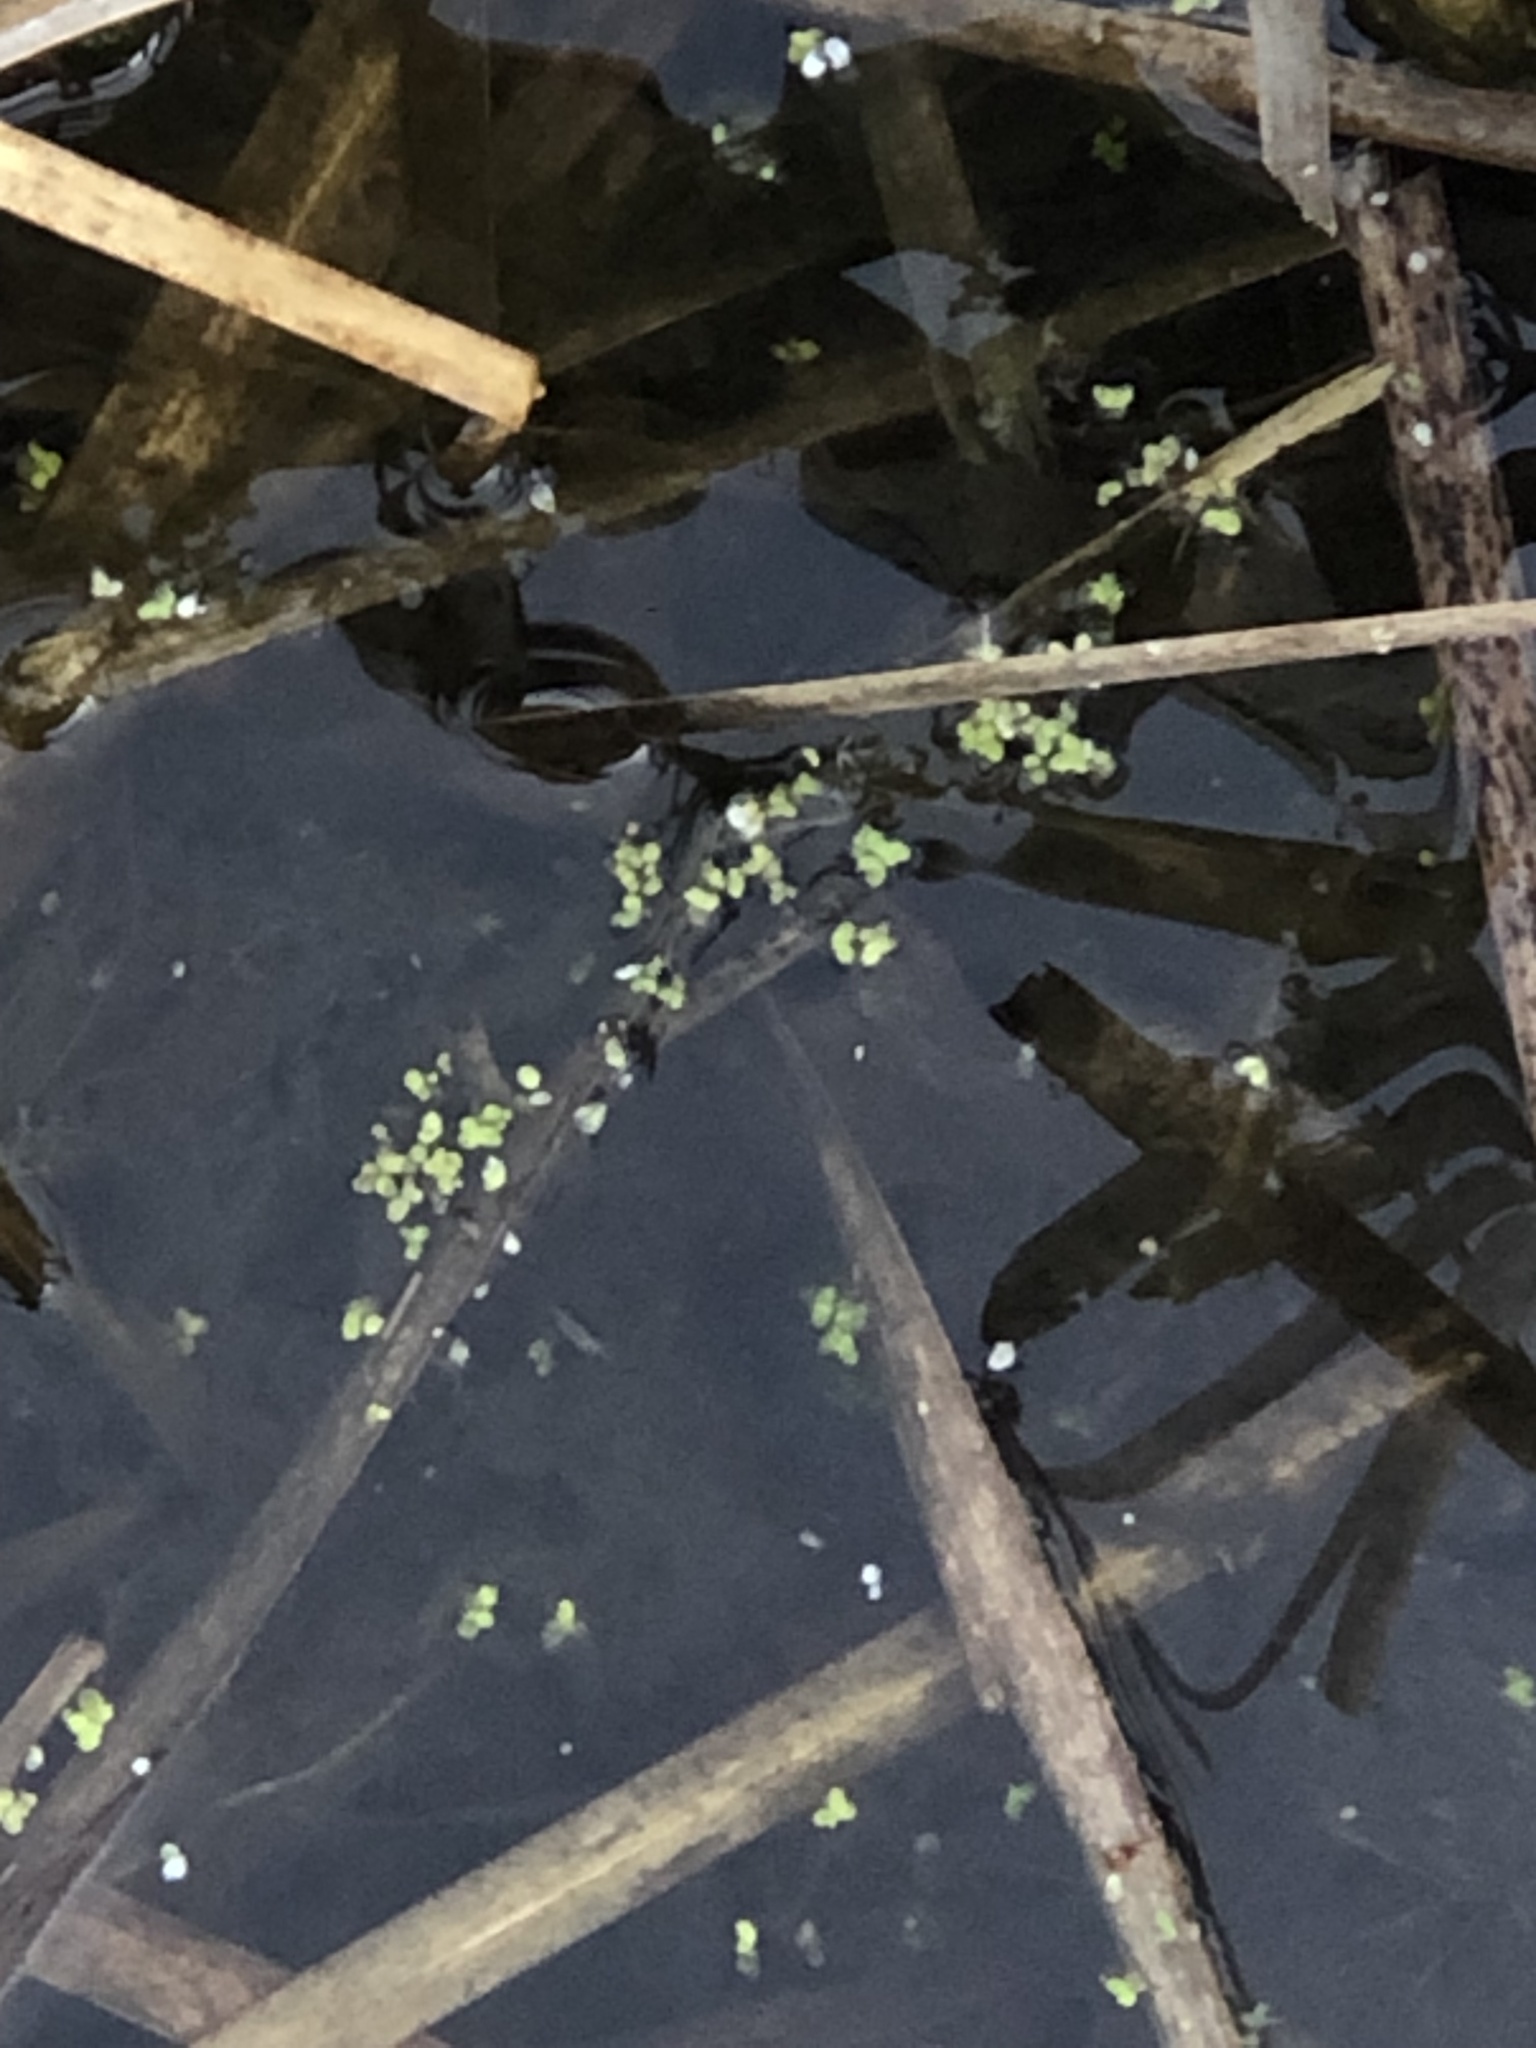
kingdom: Plantae
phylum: Tracheophyta
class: Liliopsida
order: Alismatales
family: Araceae
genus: Lemna
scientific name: Lemna minor
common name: Common duckweed
